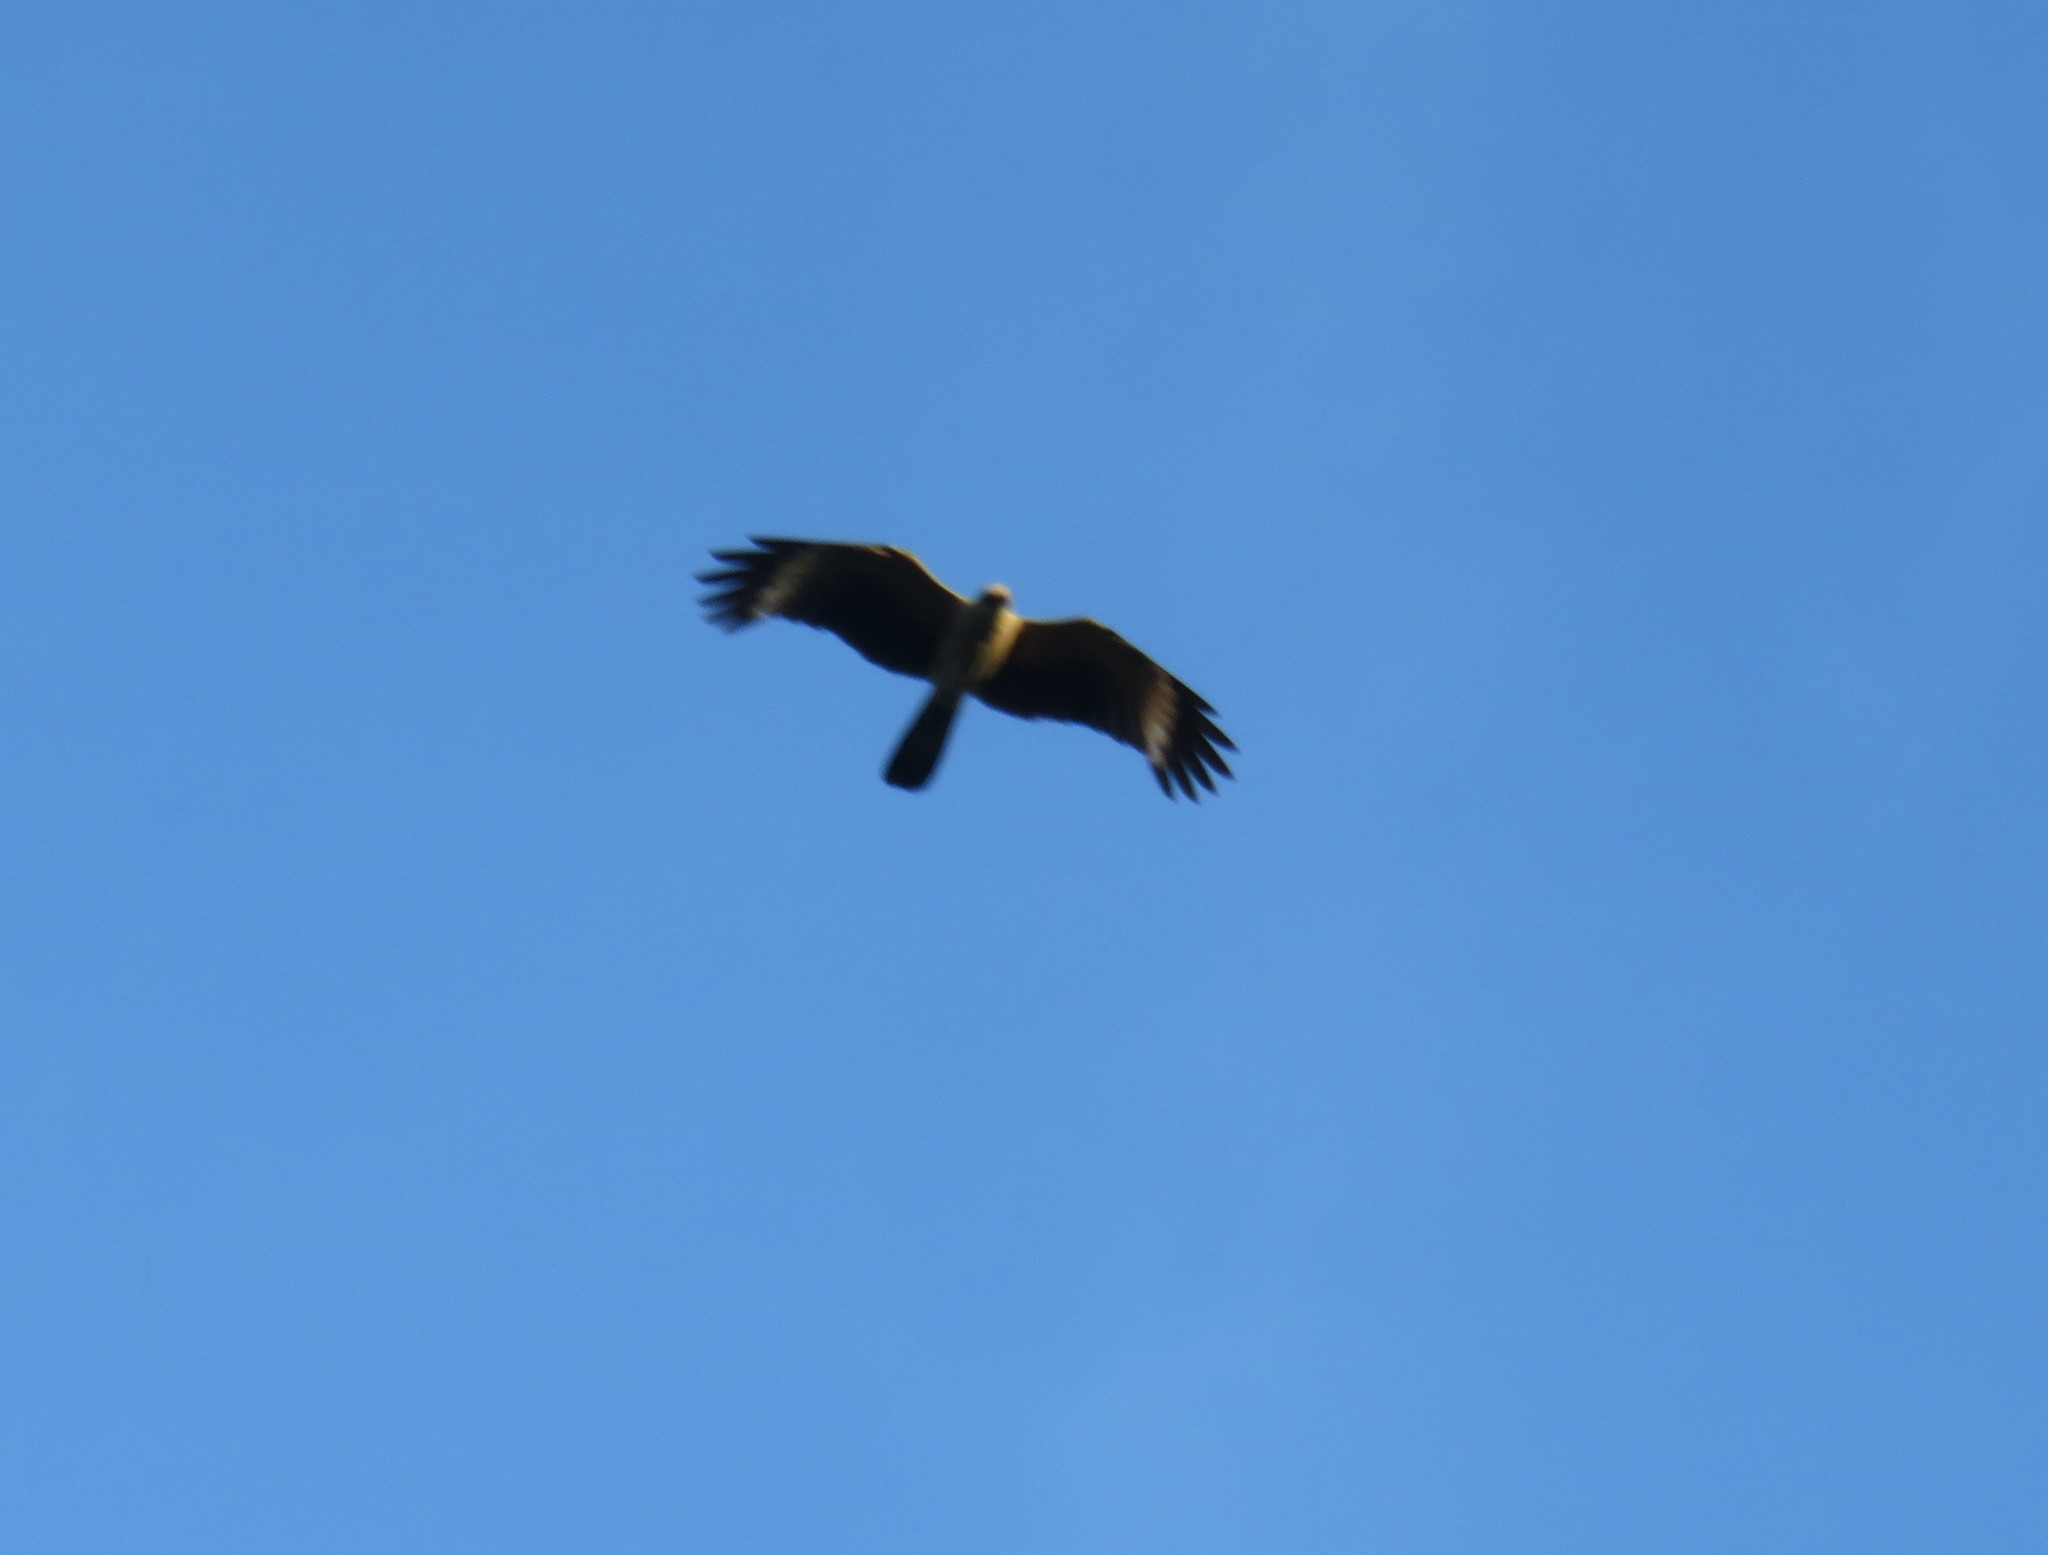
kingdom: Animalia
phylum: Chordata
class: Aves
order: Falconiformes
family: Falconidae
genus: Daptrius
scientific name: Daptrius
